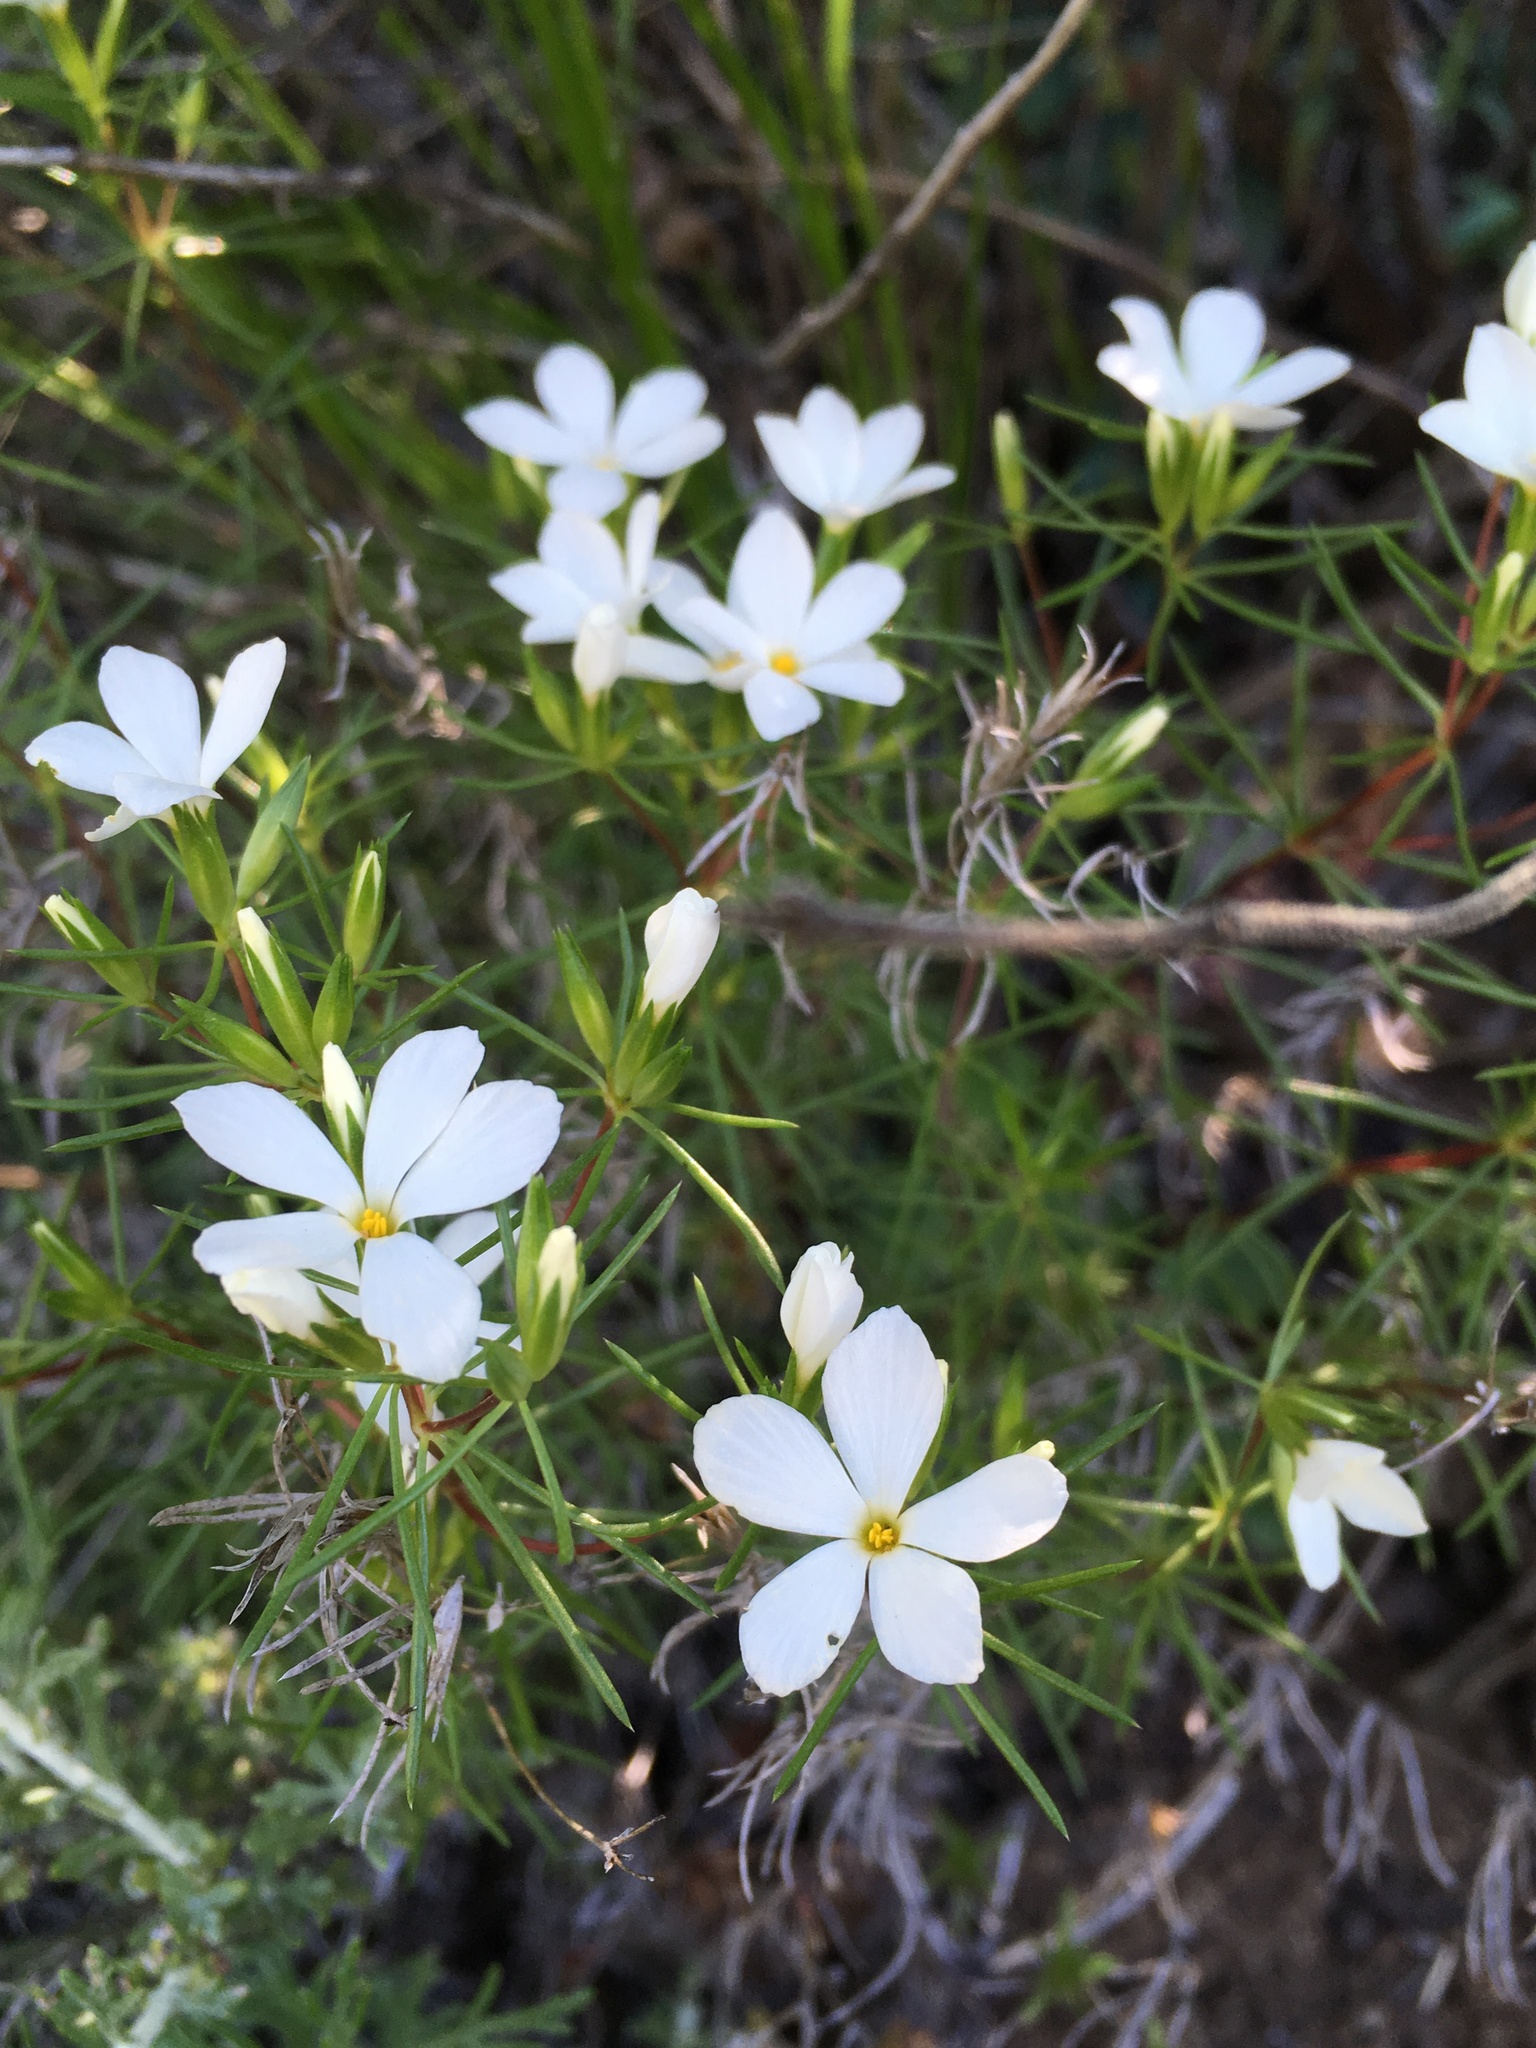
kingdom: Plantae
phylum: Tracheophyta
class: Magnoliopsida
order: Ericales
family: Polemoniaceae
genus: Leptosiphon
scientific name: Leptosiphon floribundum
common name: Many-flower linanthus
